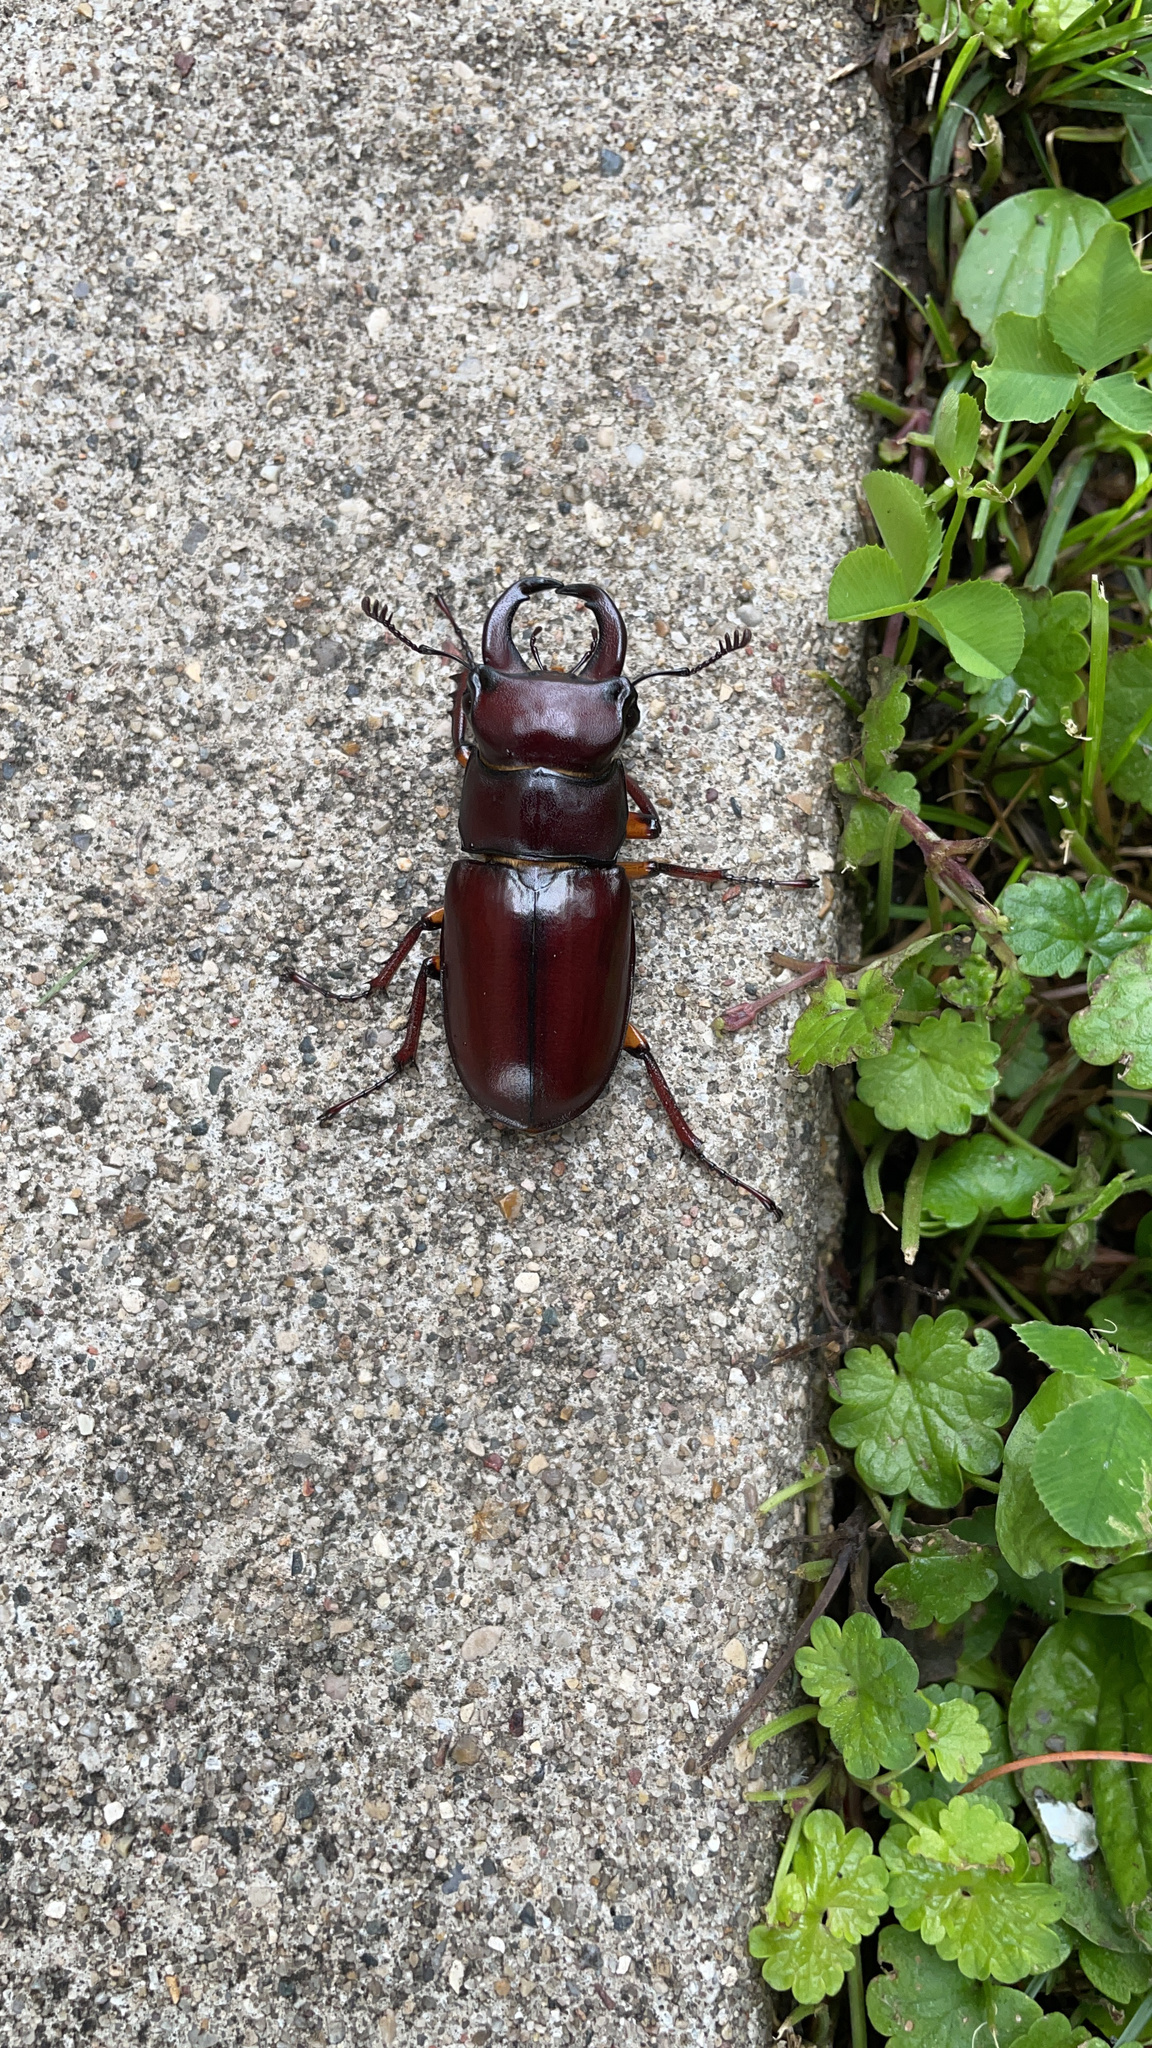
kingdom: Animalia
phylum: Arthropoda
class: Insecta
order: Coleoptera
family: Lucanidae
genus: Lucanus
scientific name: Lucanus capreolus
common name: Stag beetle
